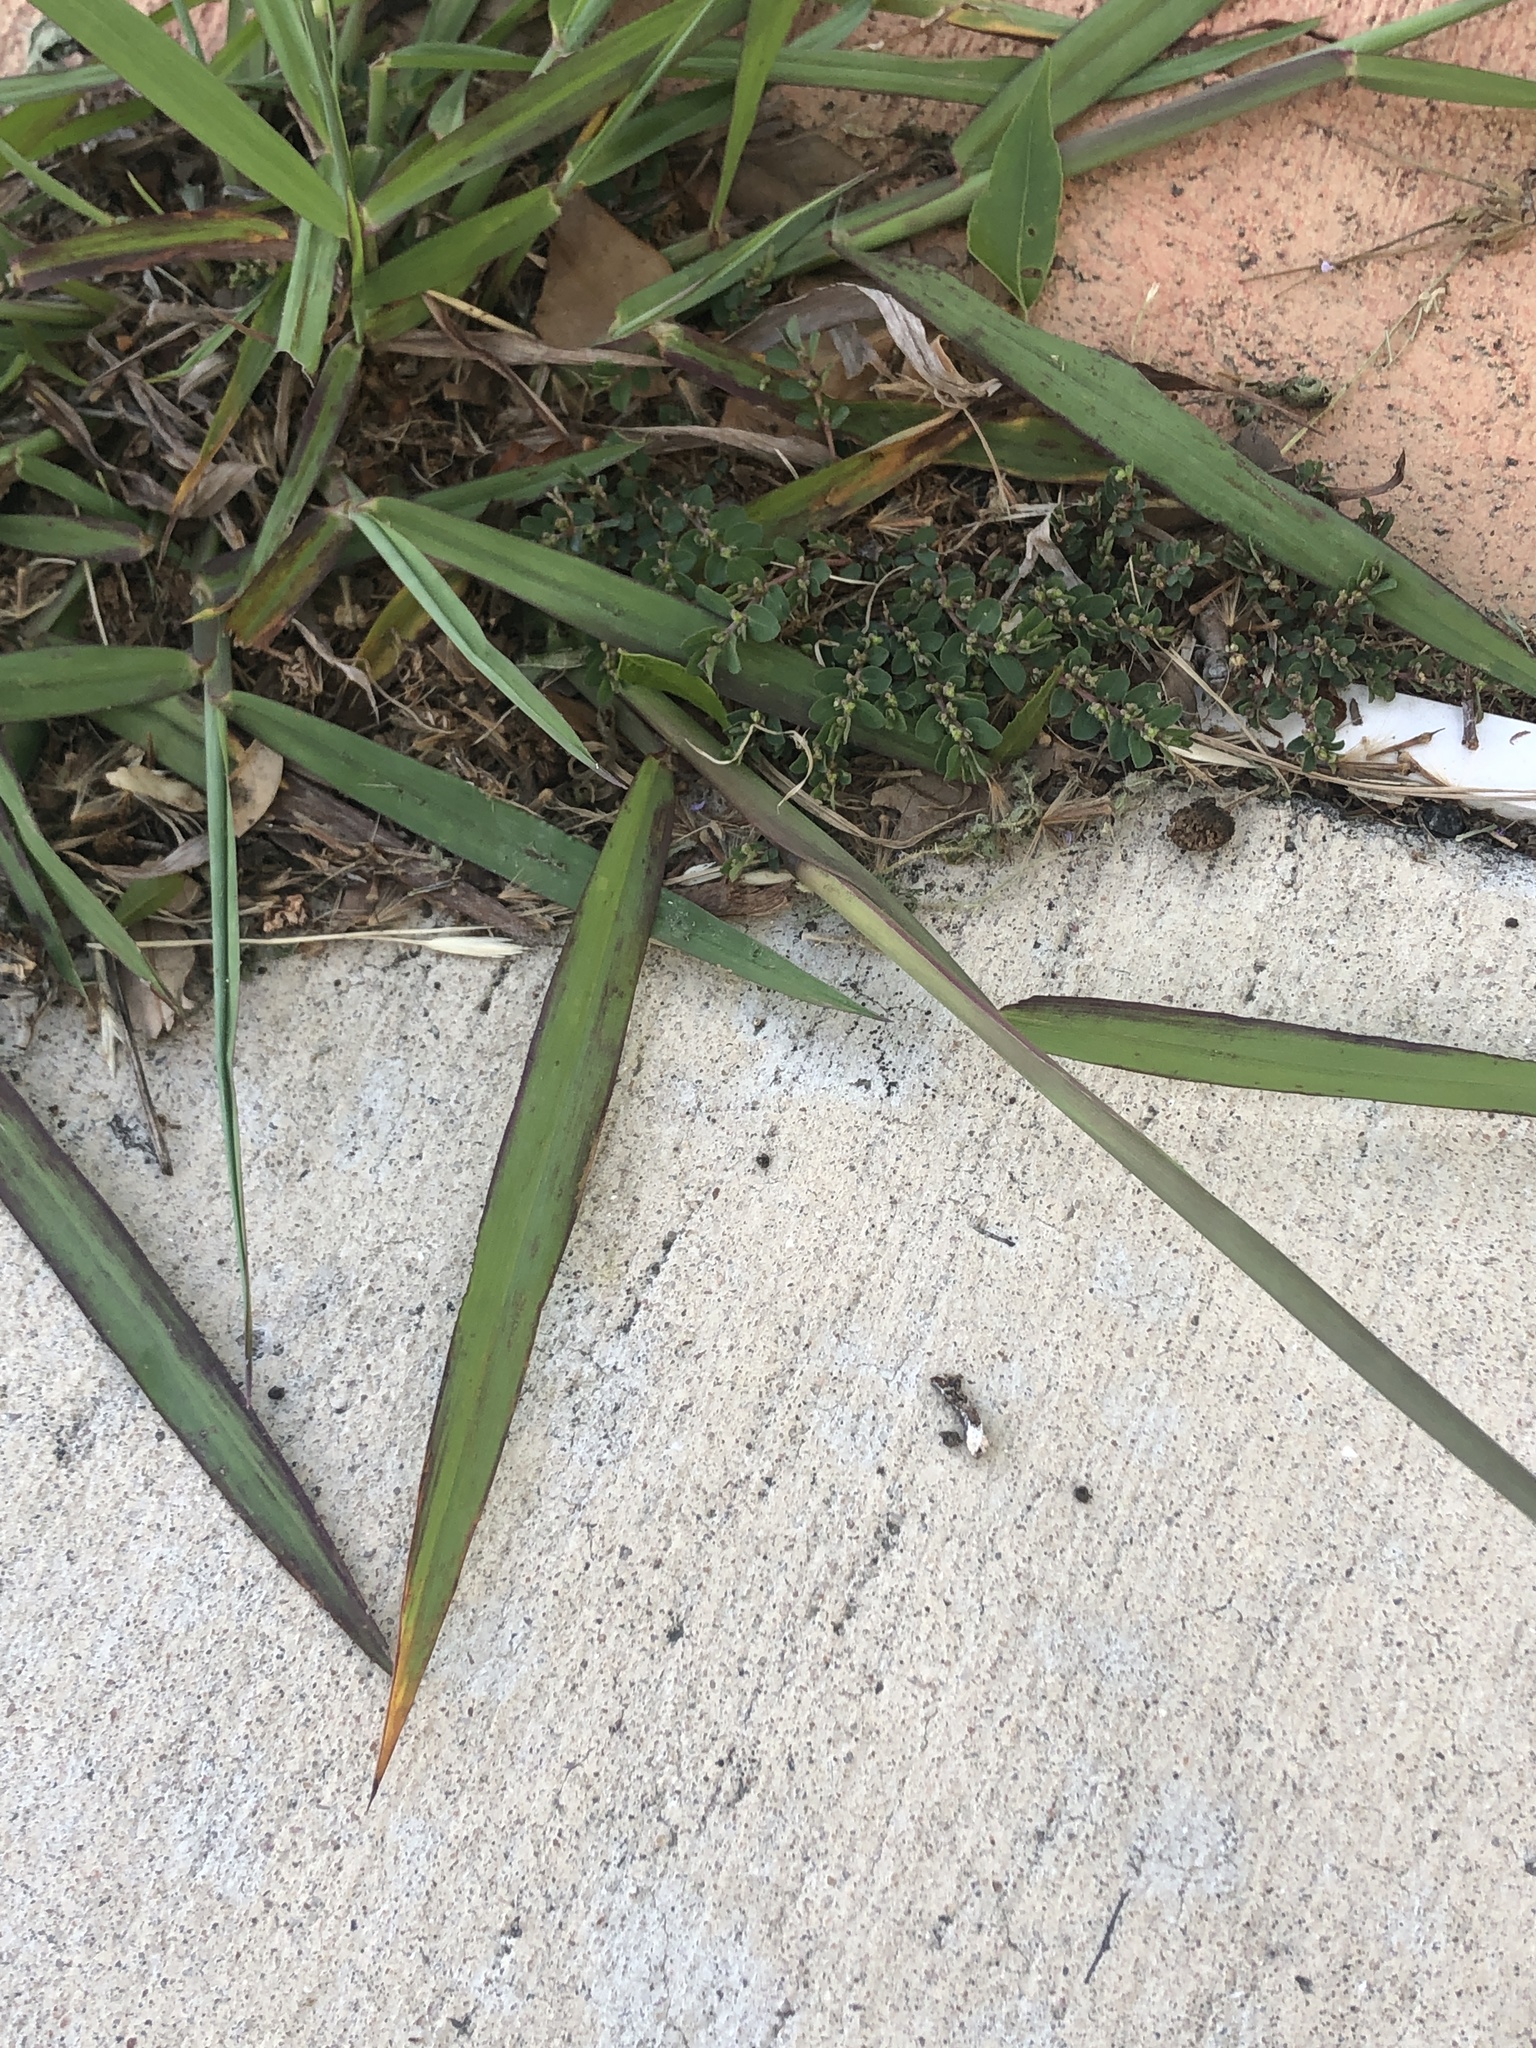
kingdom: Plantae
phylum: Tracheophyta
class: Liliopsida
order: Poales
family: Poaceae
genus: Paspalum
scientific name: Paspalum dilatatum
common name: Dallisgrass
